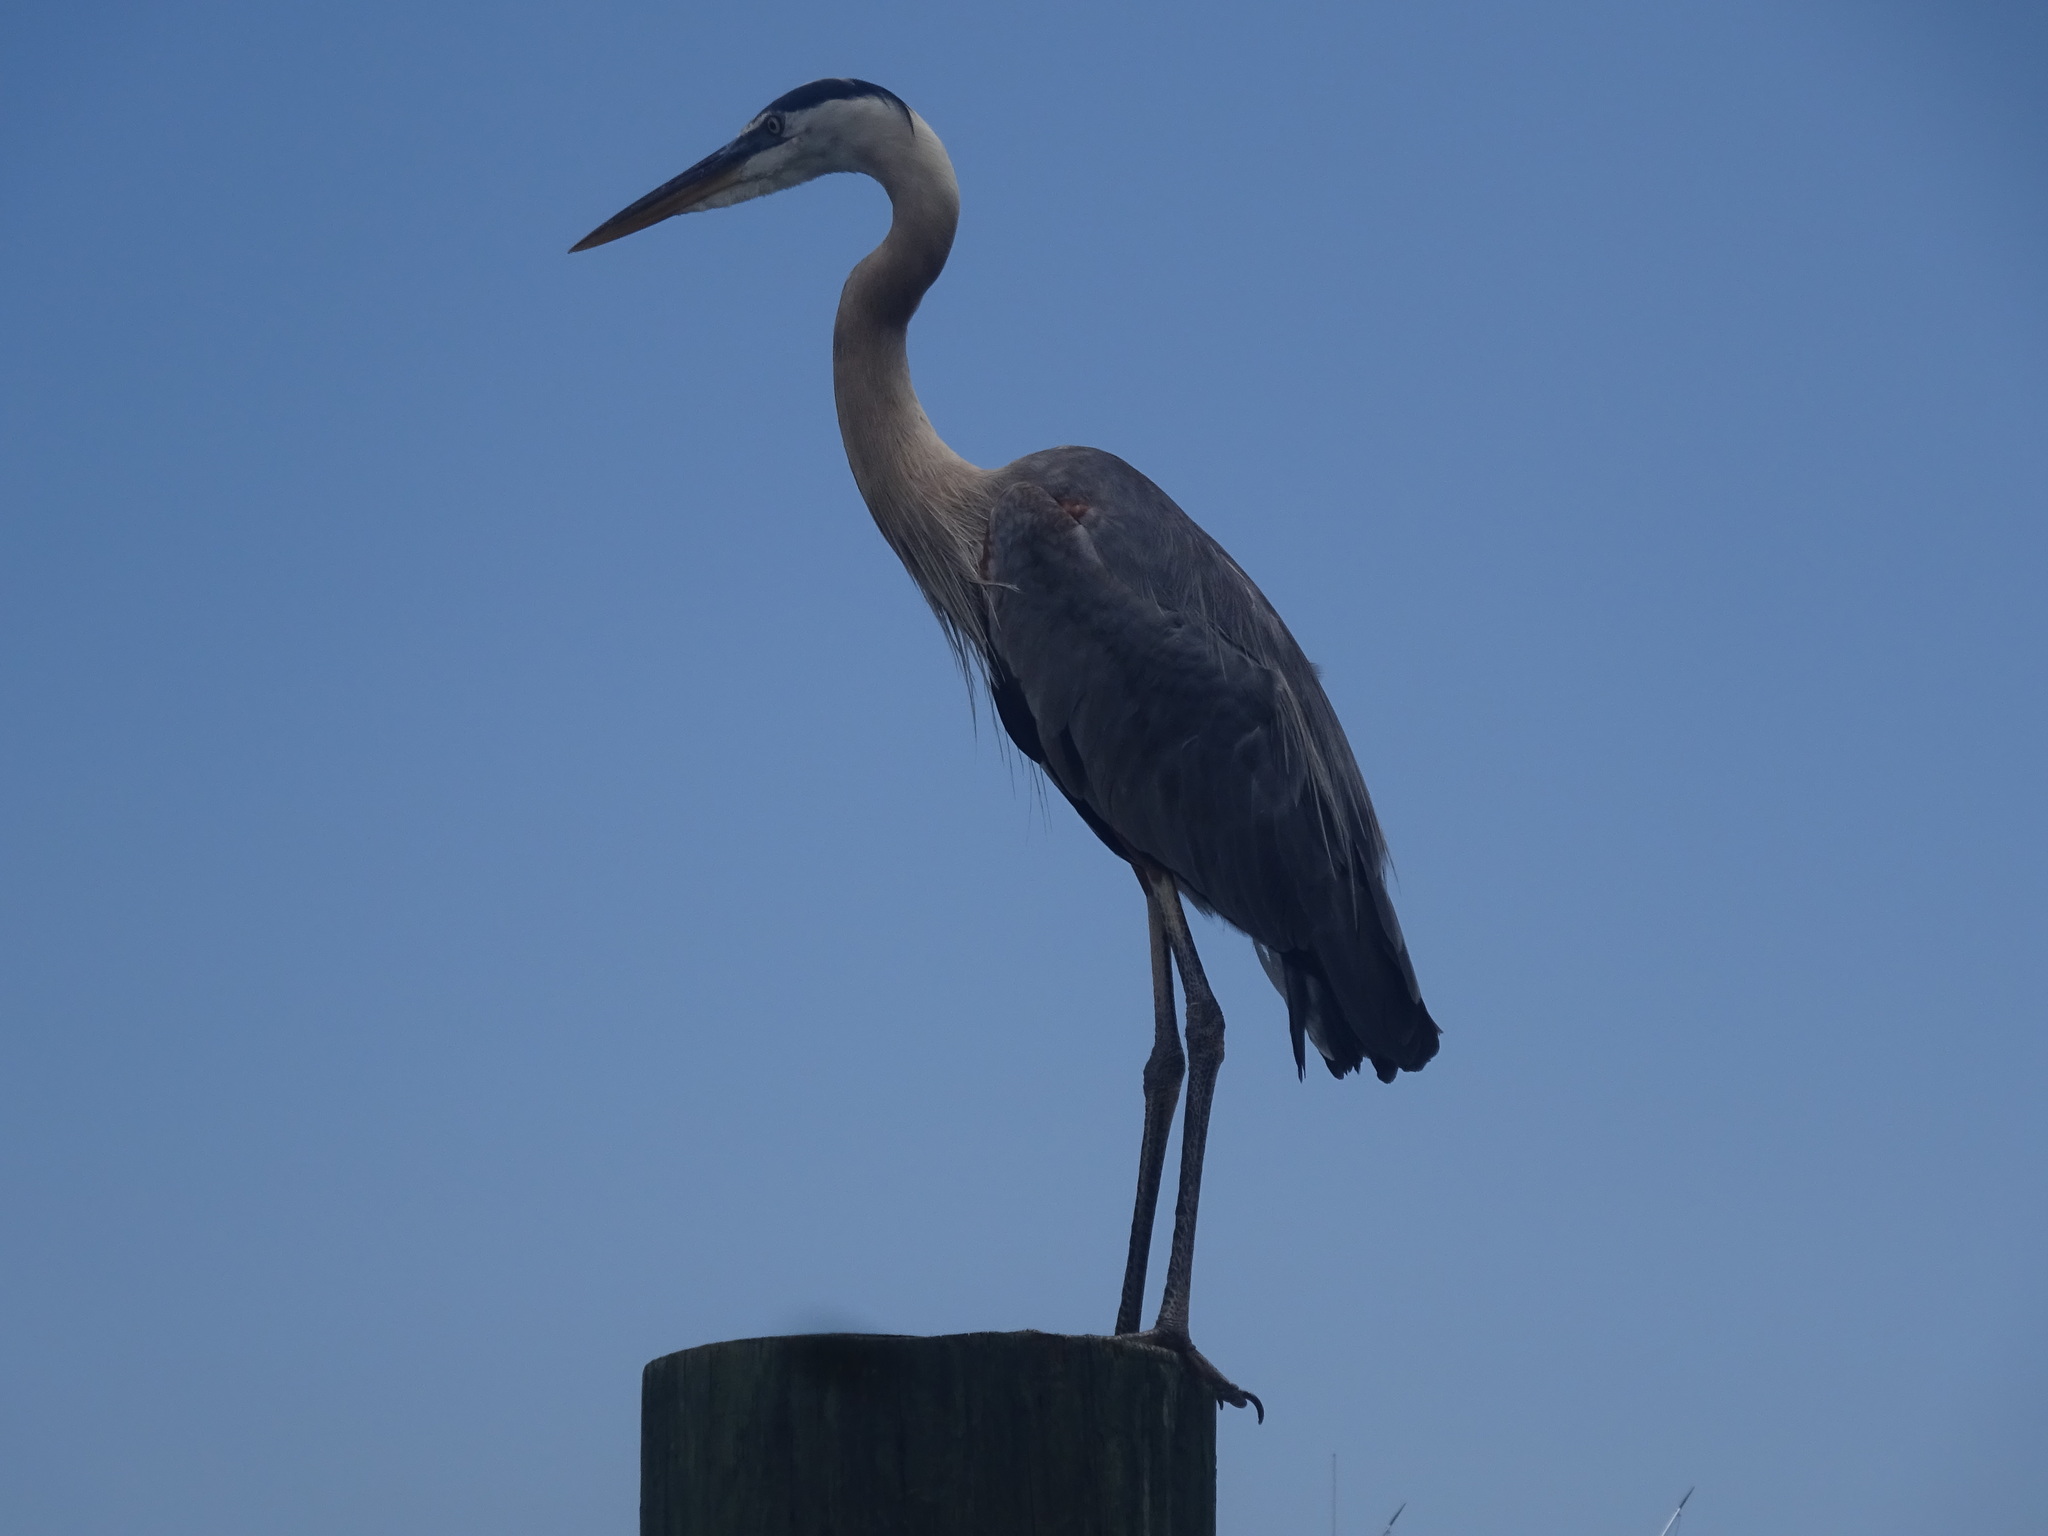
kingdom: Animalia
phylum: Chordata
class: Aves
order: Pelecaniformes
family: Ardeidae
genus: Ardea
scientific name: Ardea herodias
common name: Great blue heron
